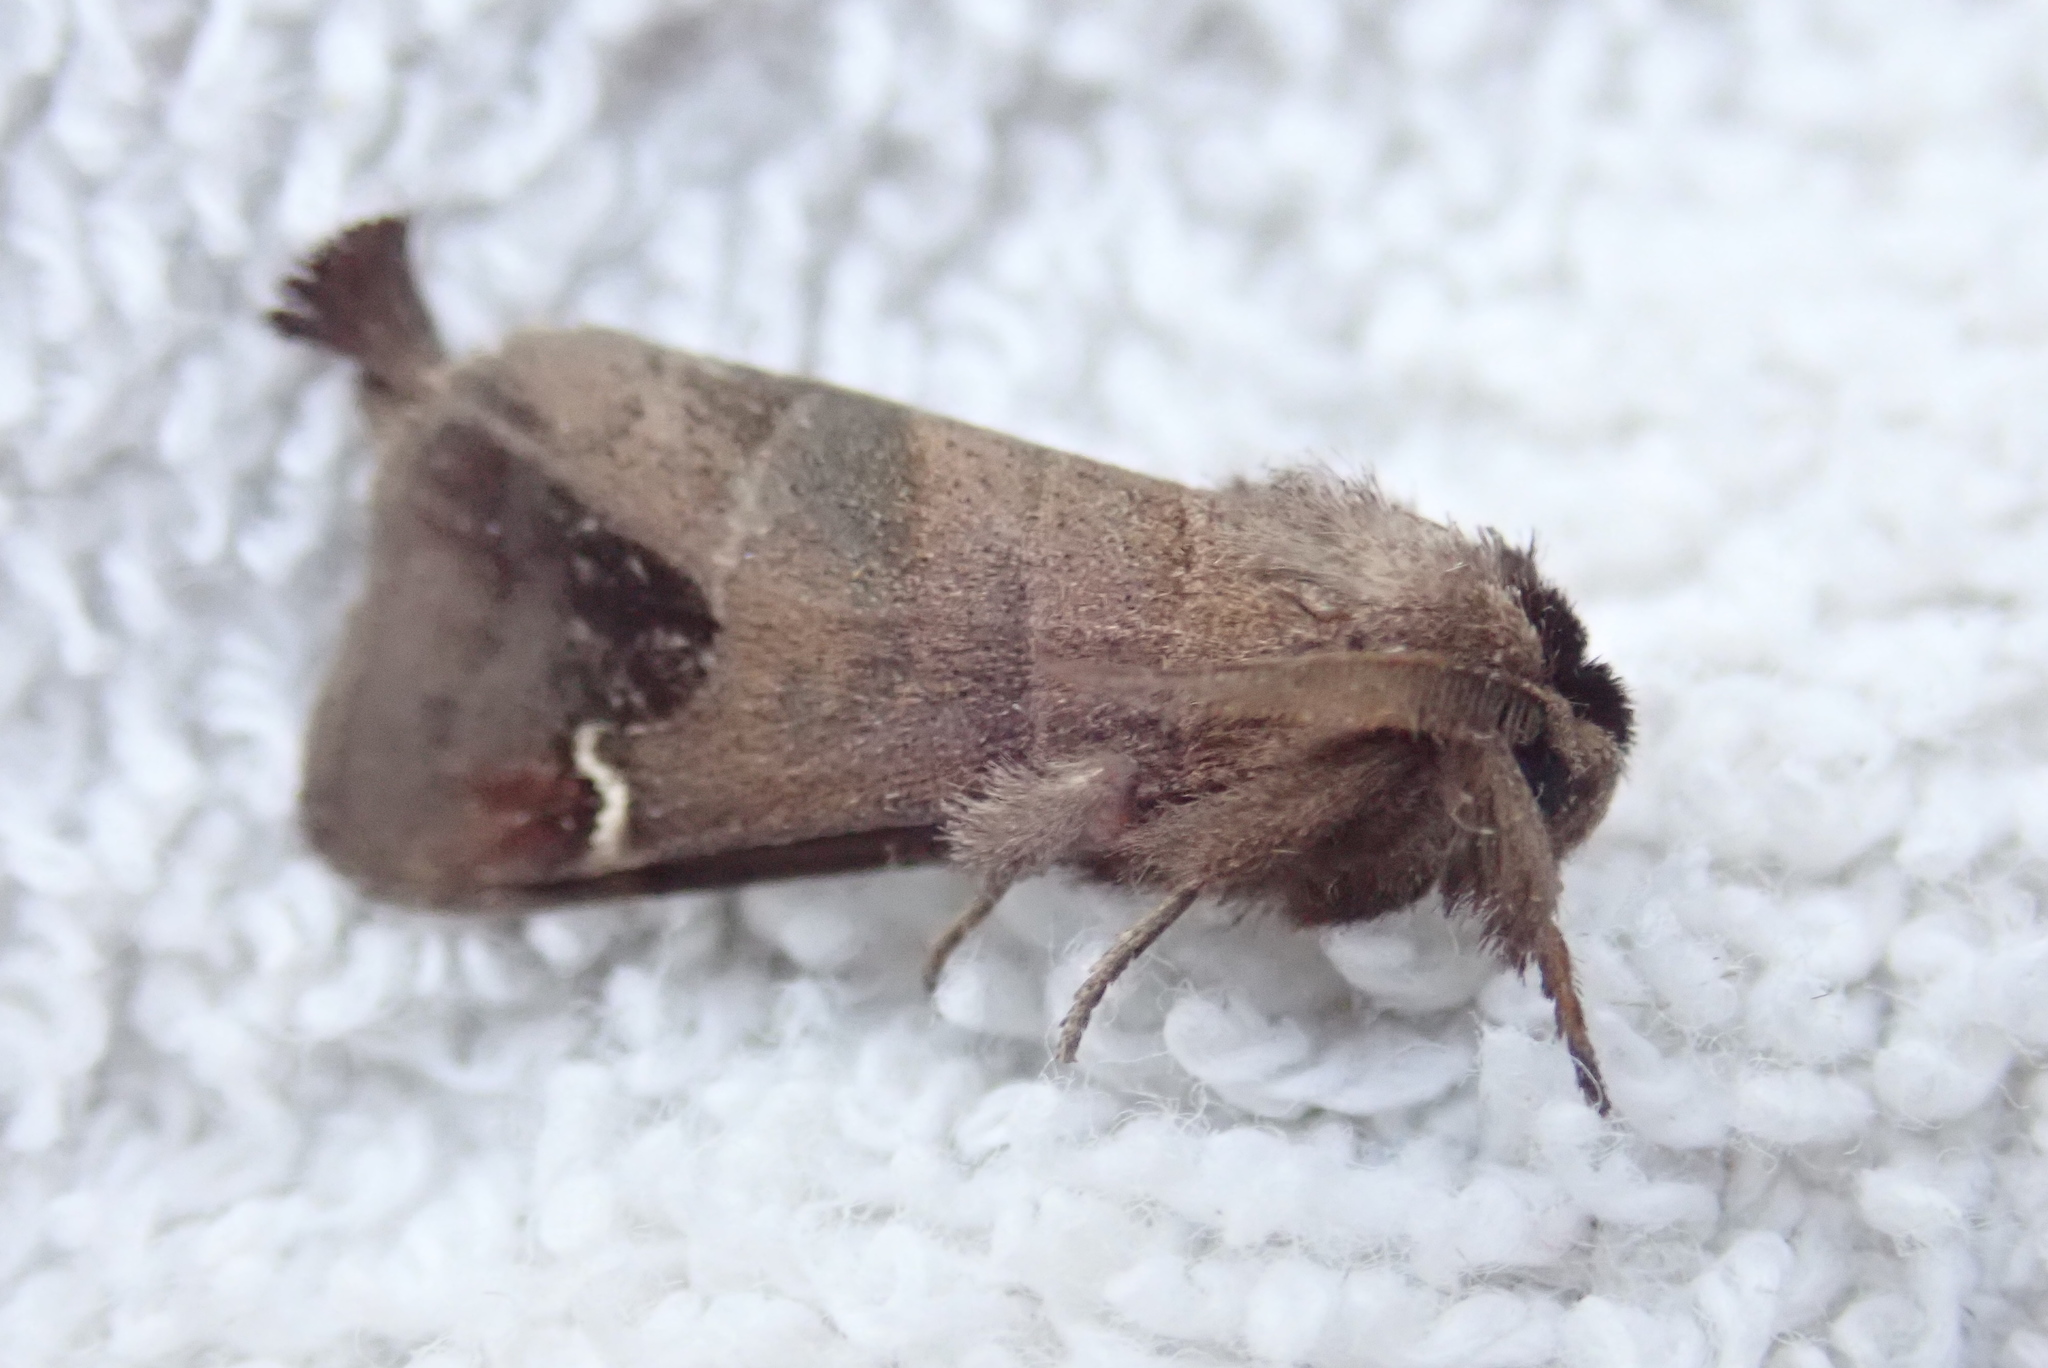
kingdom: Animalia
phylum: Arthropoda
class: Insecta
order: Lepidoptera
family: Notodontidae
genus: Clostera
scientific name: Clostera albosigma
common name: Sigmoid prominent
